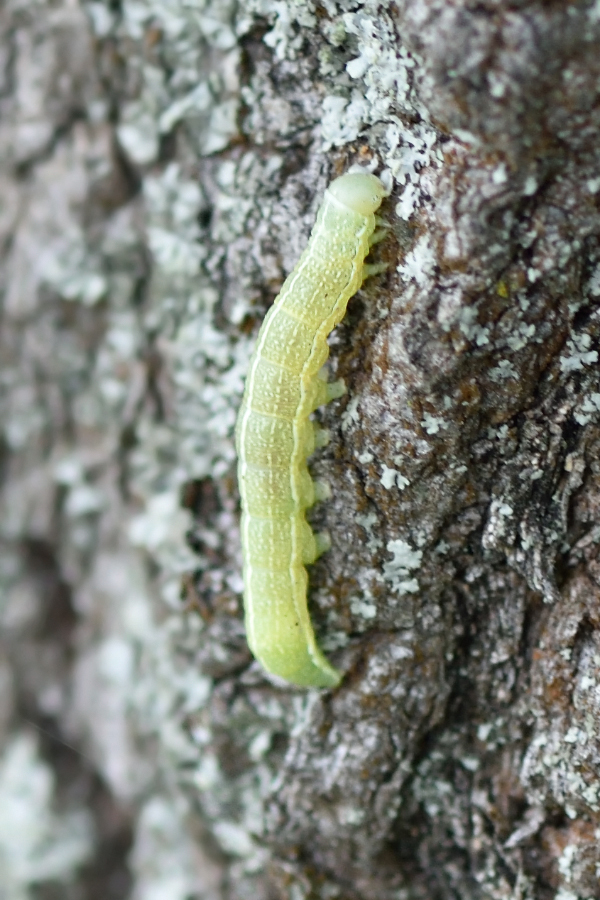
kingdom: Animalia
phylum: Arthropoda
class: Insecta
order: Lepidoptera
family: Noctuidae
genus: Orthosia
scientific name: Orthosia incerta
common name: Clouded drab
